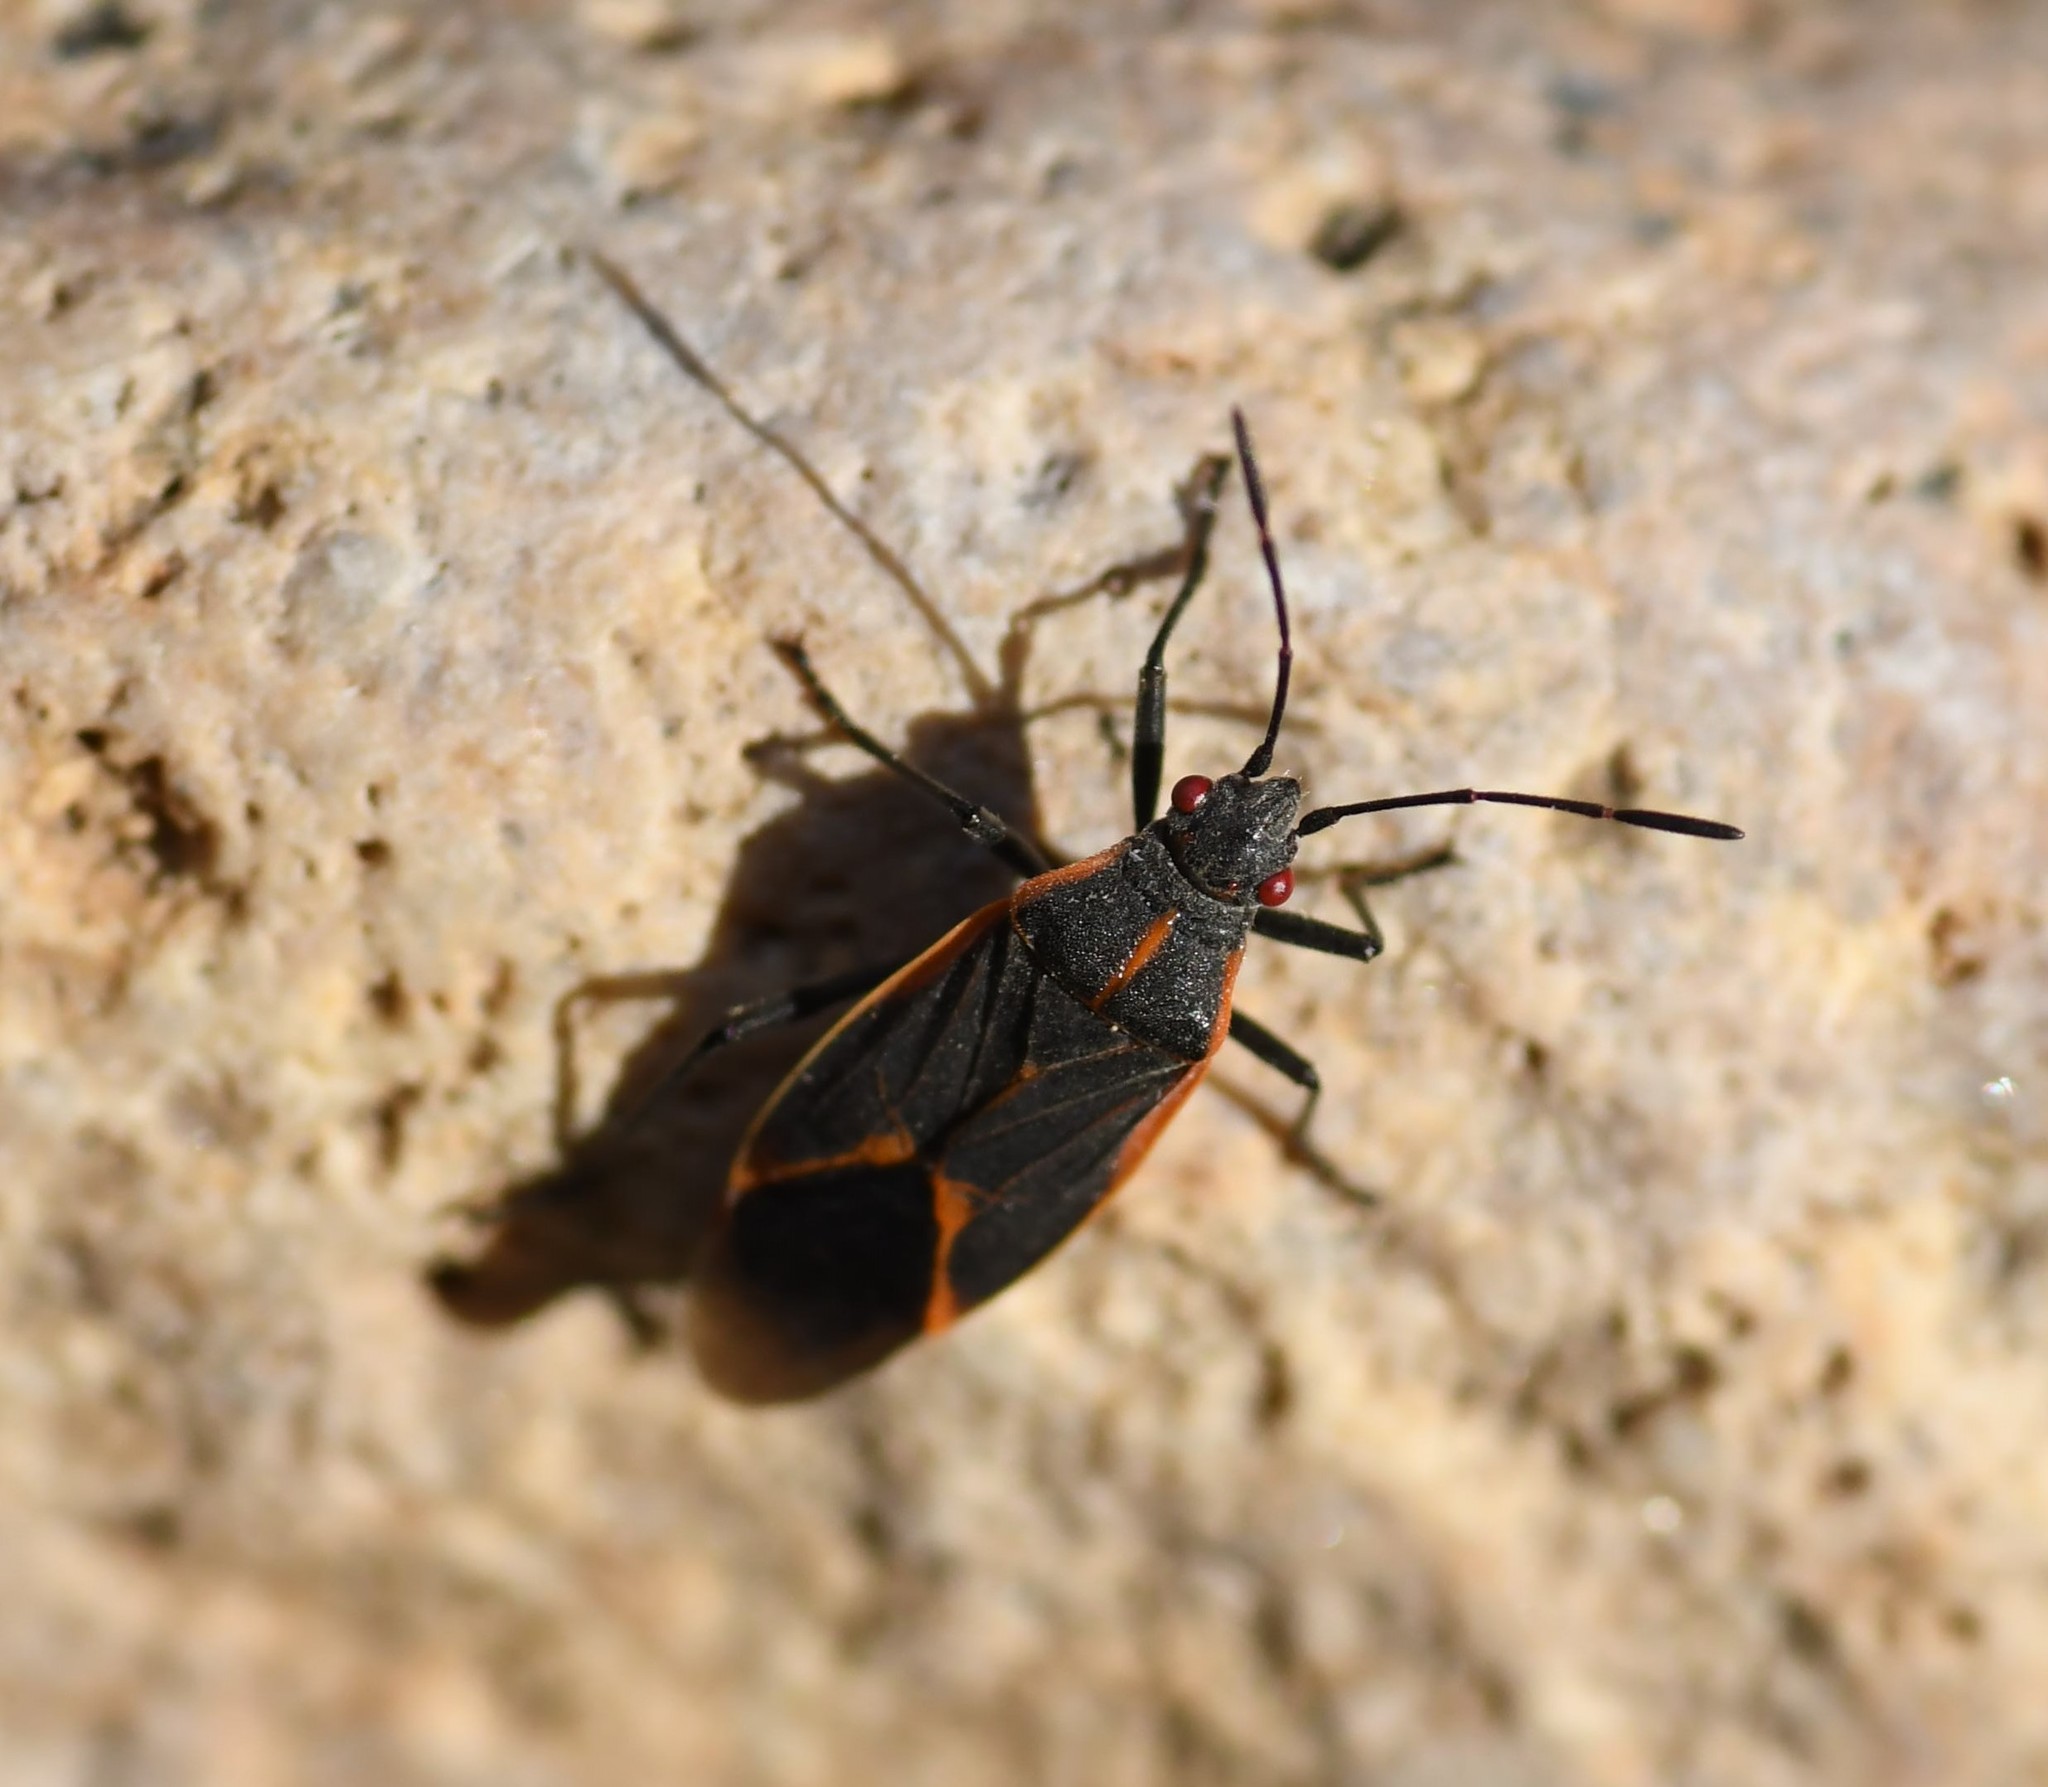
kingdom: Animalia
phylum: Arthropoda
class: Insecta
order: Hemiptera
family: Rhopalidae
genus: Boisea
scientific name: Boisea trivittata
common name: Boxelder bug
